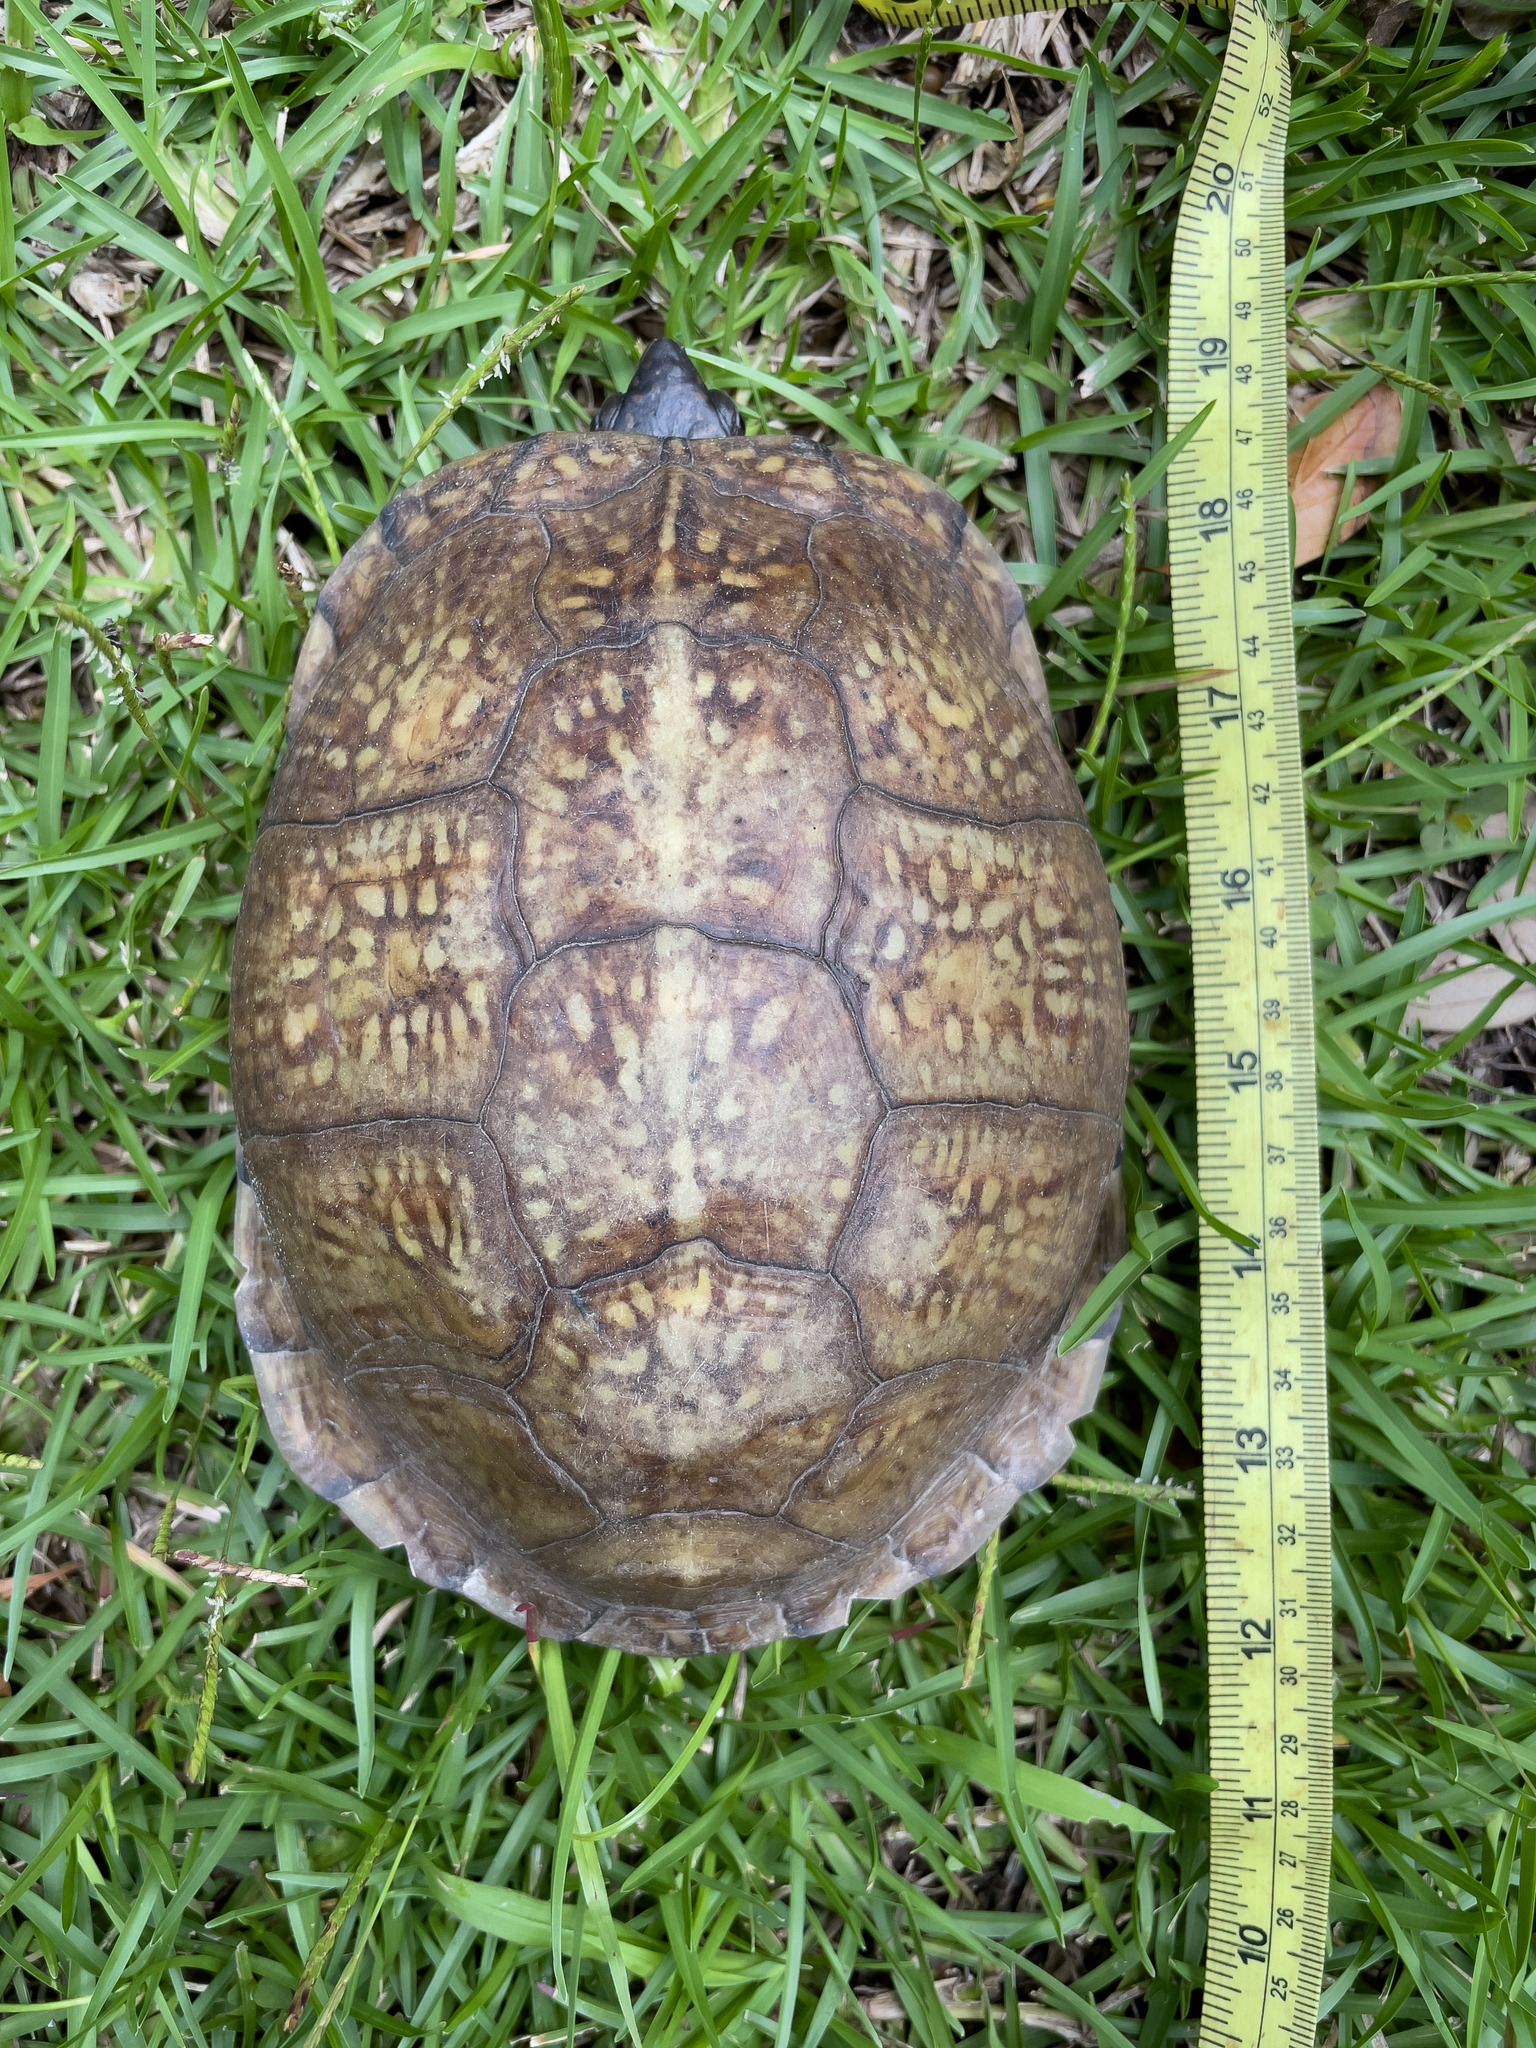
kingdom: Animalia
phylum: Chordata
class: Testudines
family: Emydidae
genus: Terrapene
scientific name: Terrapene carolina
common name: Common box turtle
